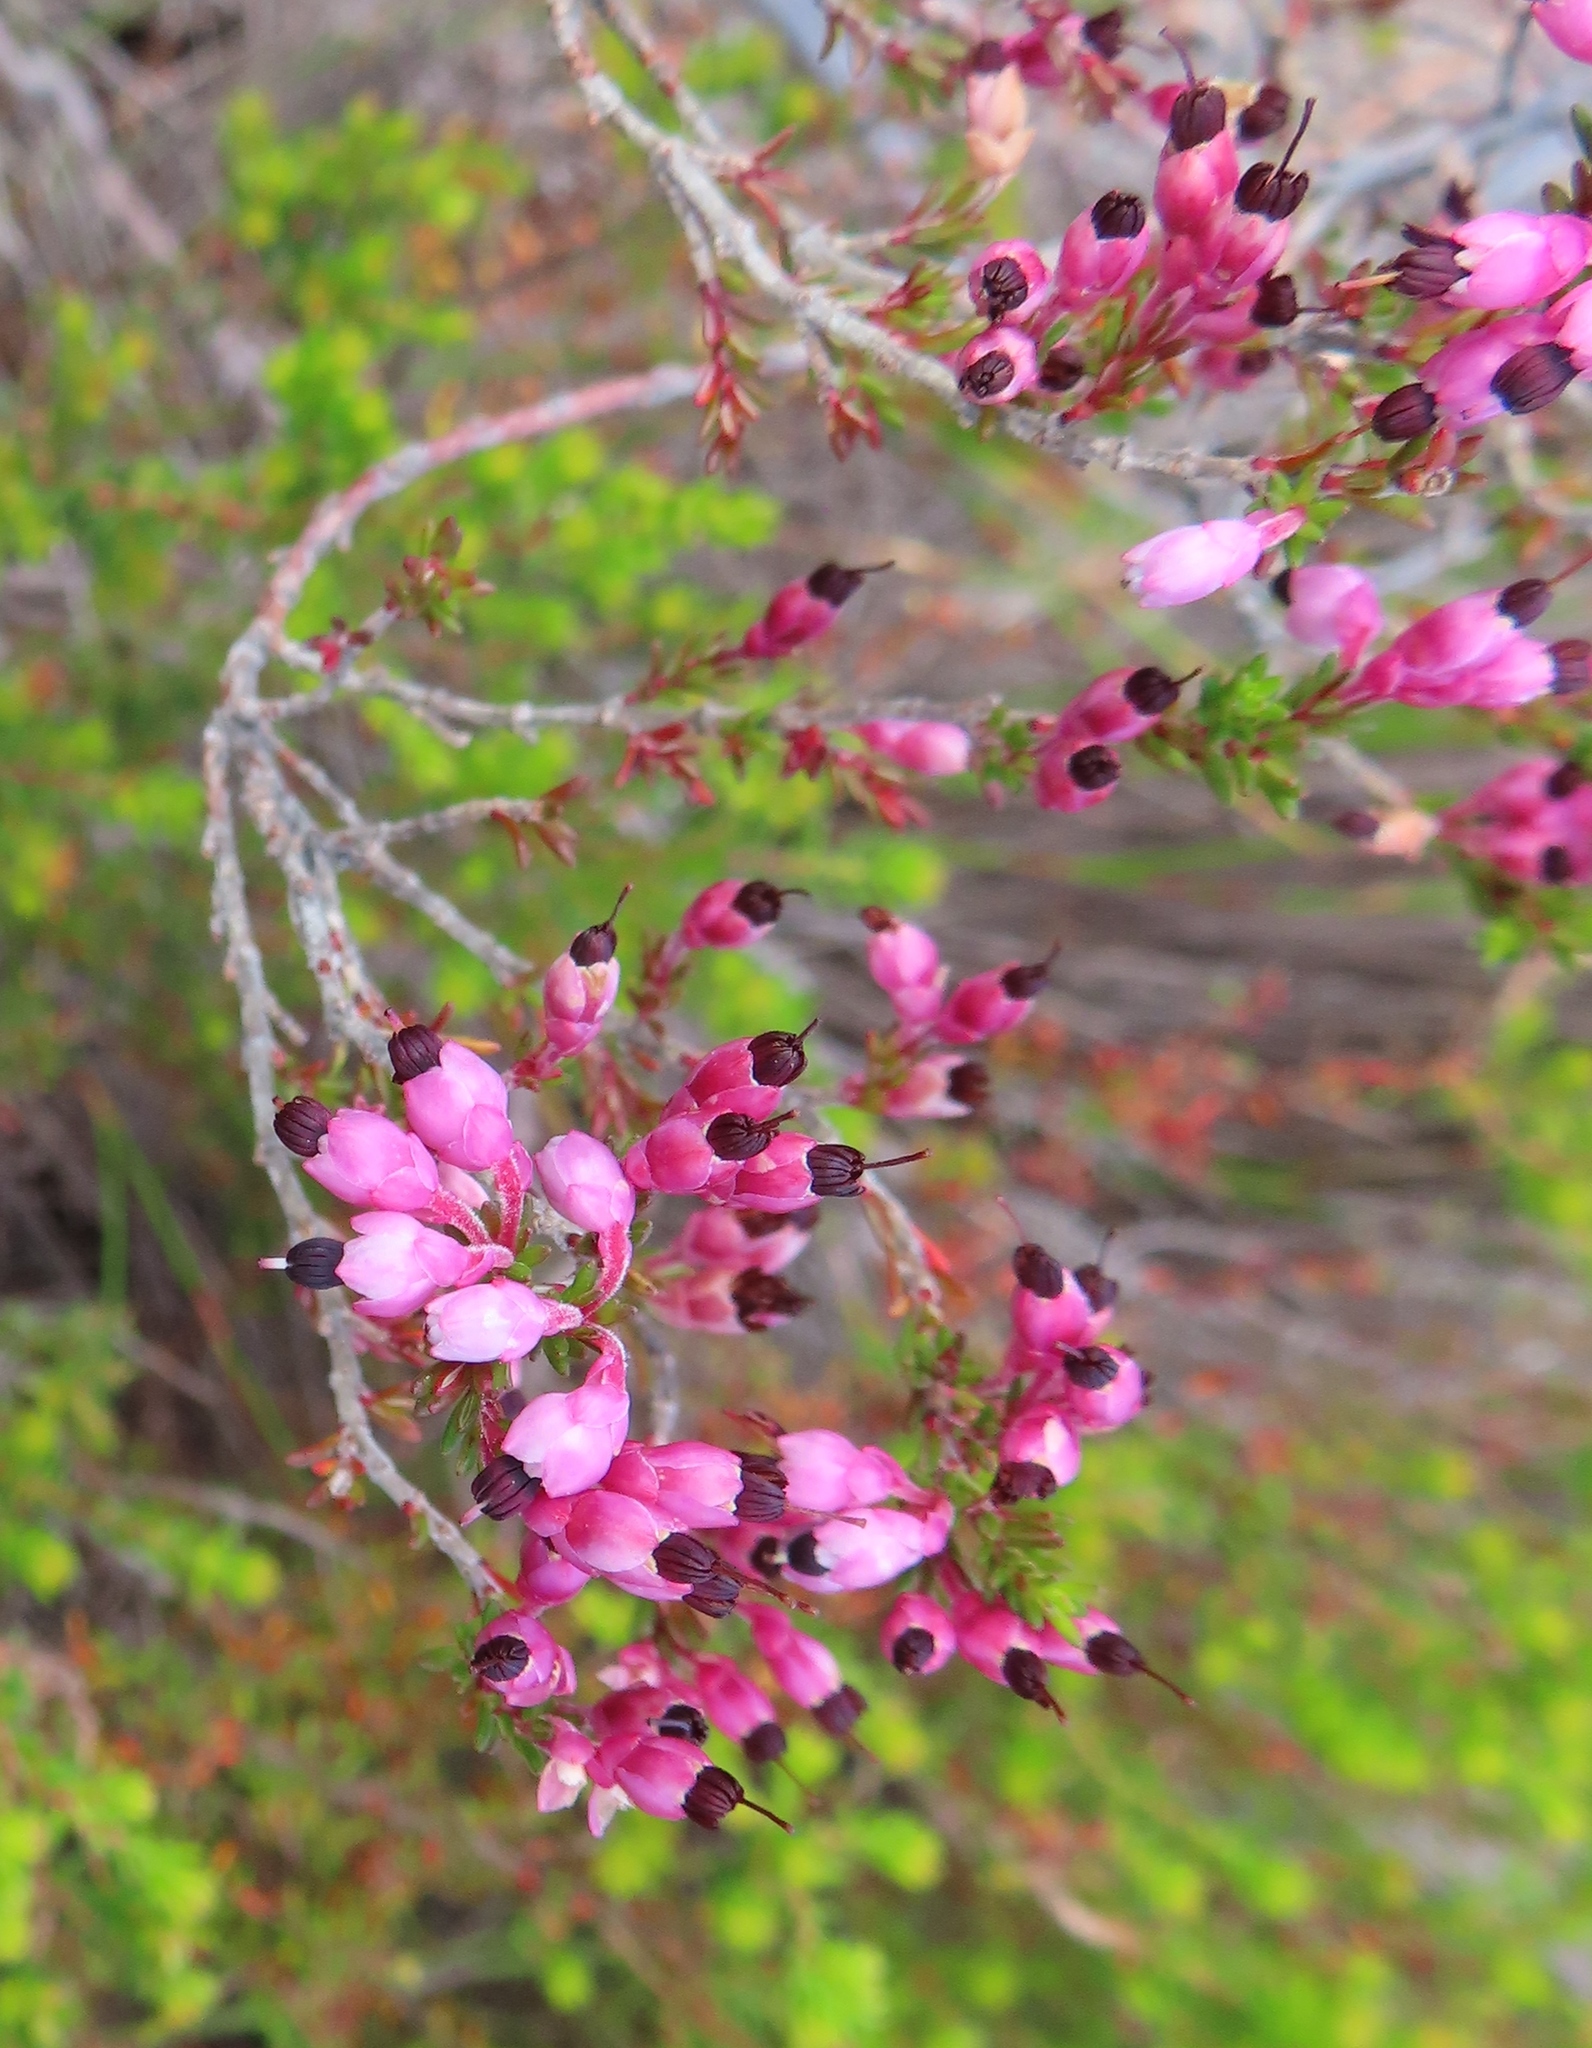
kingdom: Plantae
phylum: Tracheophyta
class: Magnoliopsida
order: Ericales
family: Ericaceae
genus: Erica
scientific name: Erica placentiflora
